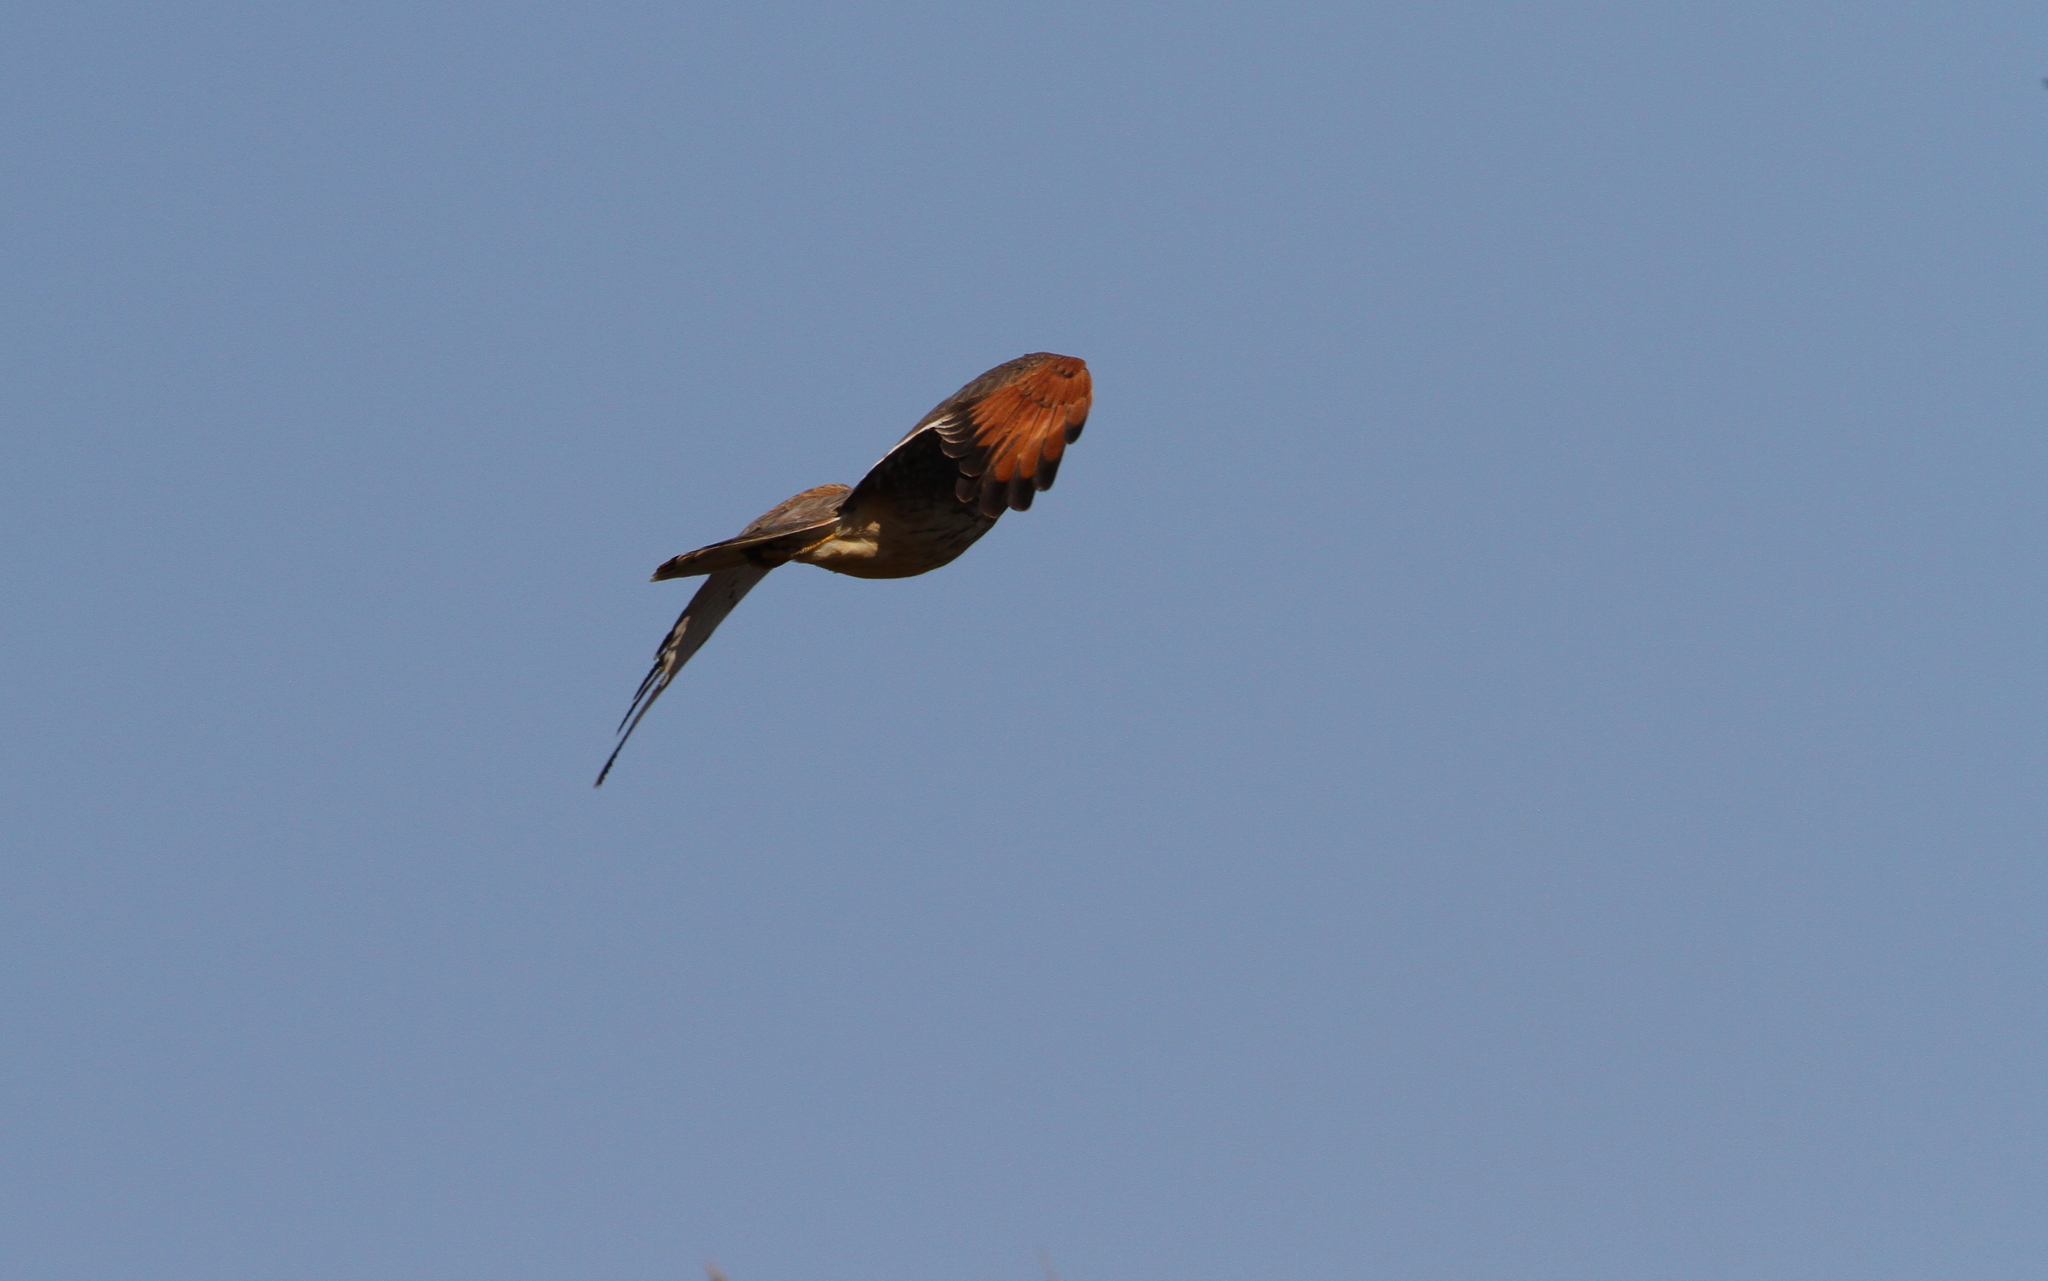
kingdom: Animalia
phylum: Chordata
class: Aves
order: Accipitriformes
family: Accipitridae
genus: Butastur
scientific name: Butastur rufipennis
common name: Grasshopper buzzard
